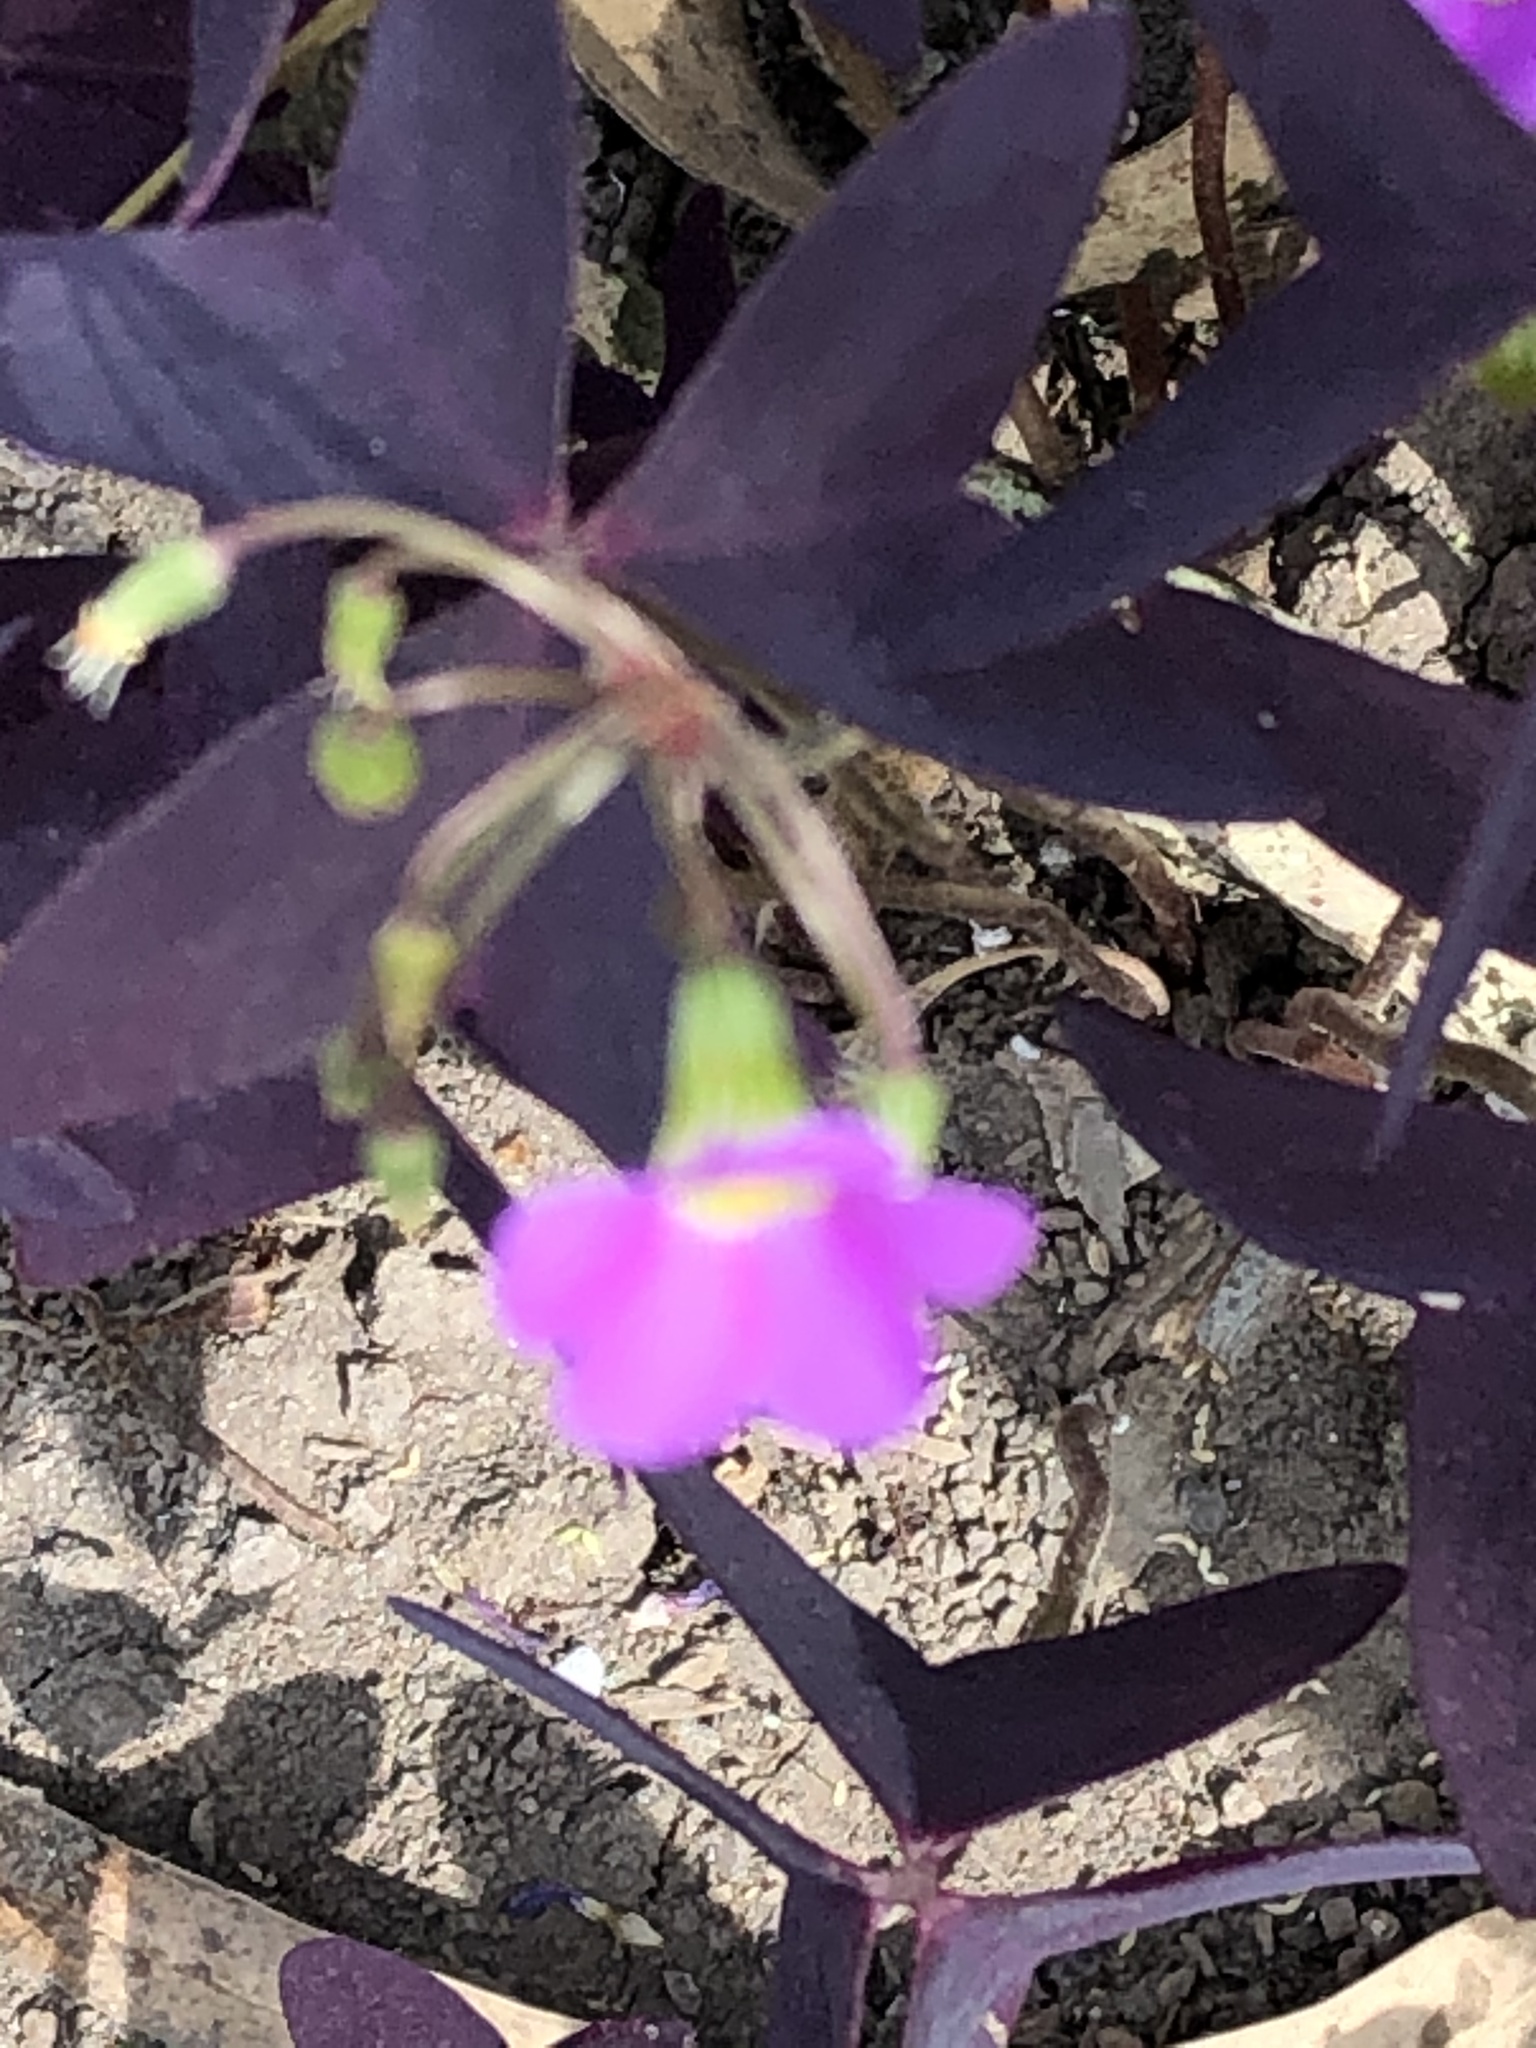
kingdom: Plantae
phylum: Tracheophyta
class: Magnoliopsida
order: Oxalidales
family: Oxalidaceae
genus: Oxalis
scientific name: Oxalis latifolia
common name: Garden pink-sorrel
